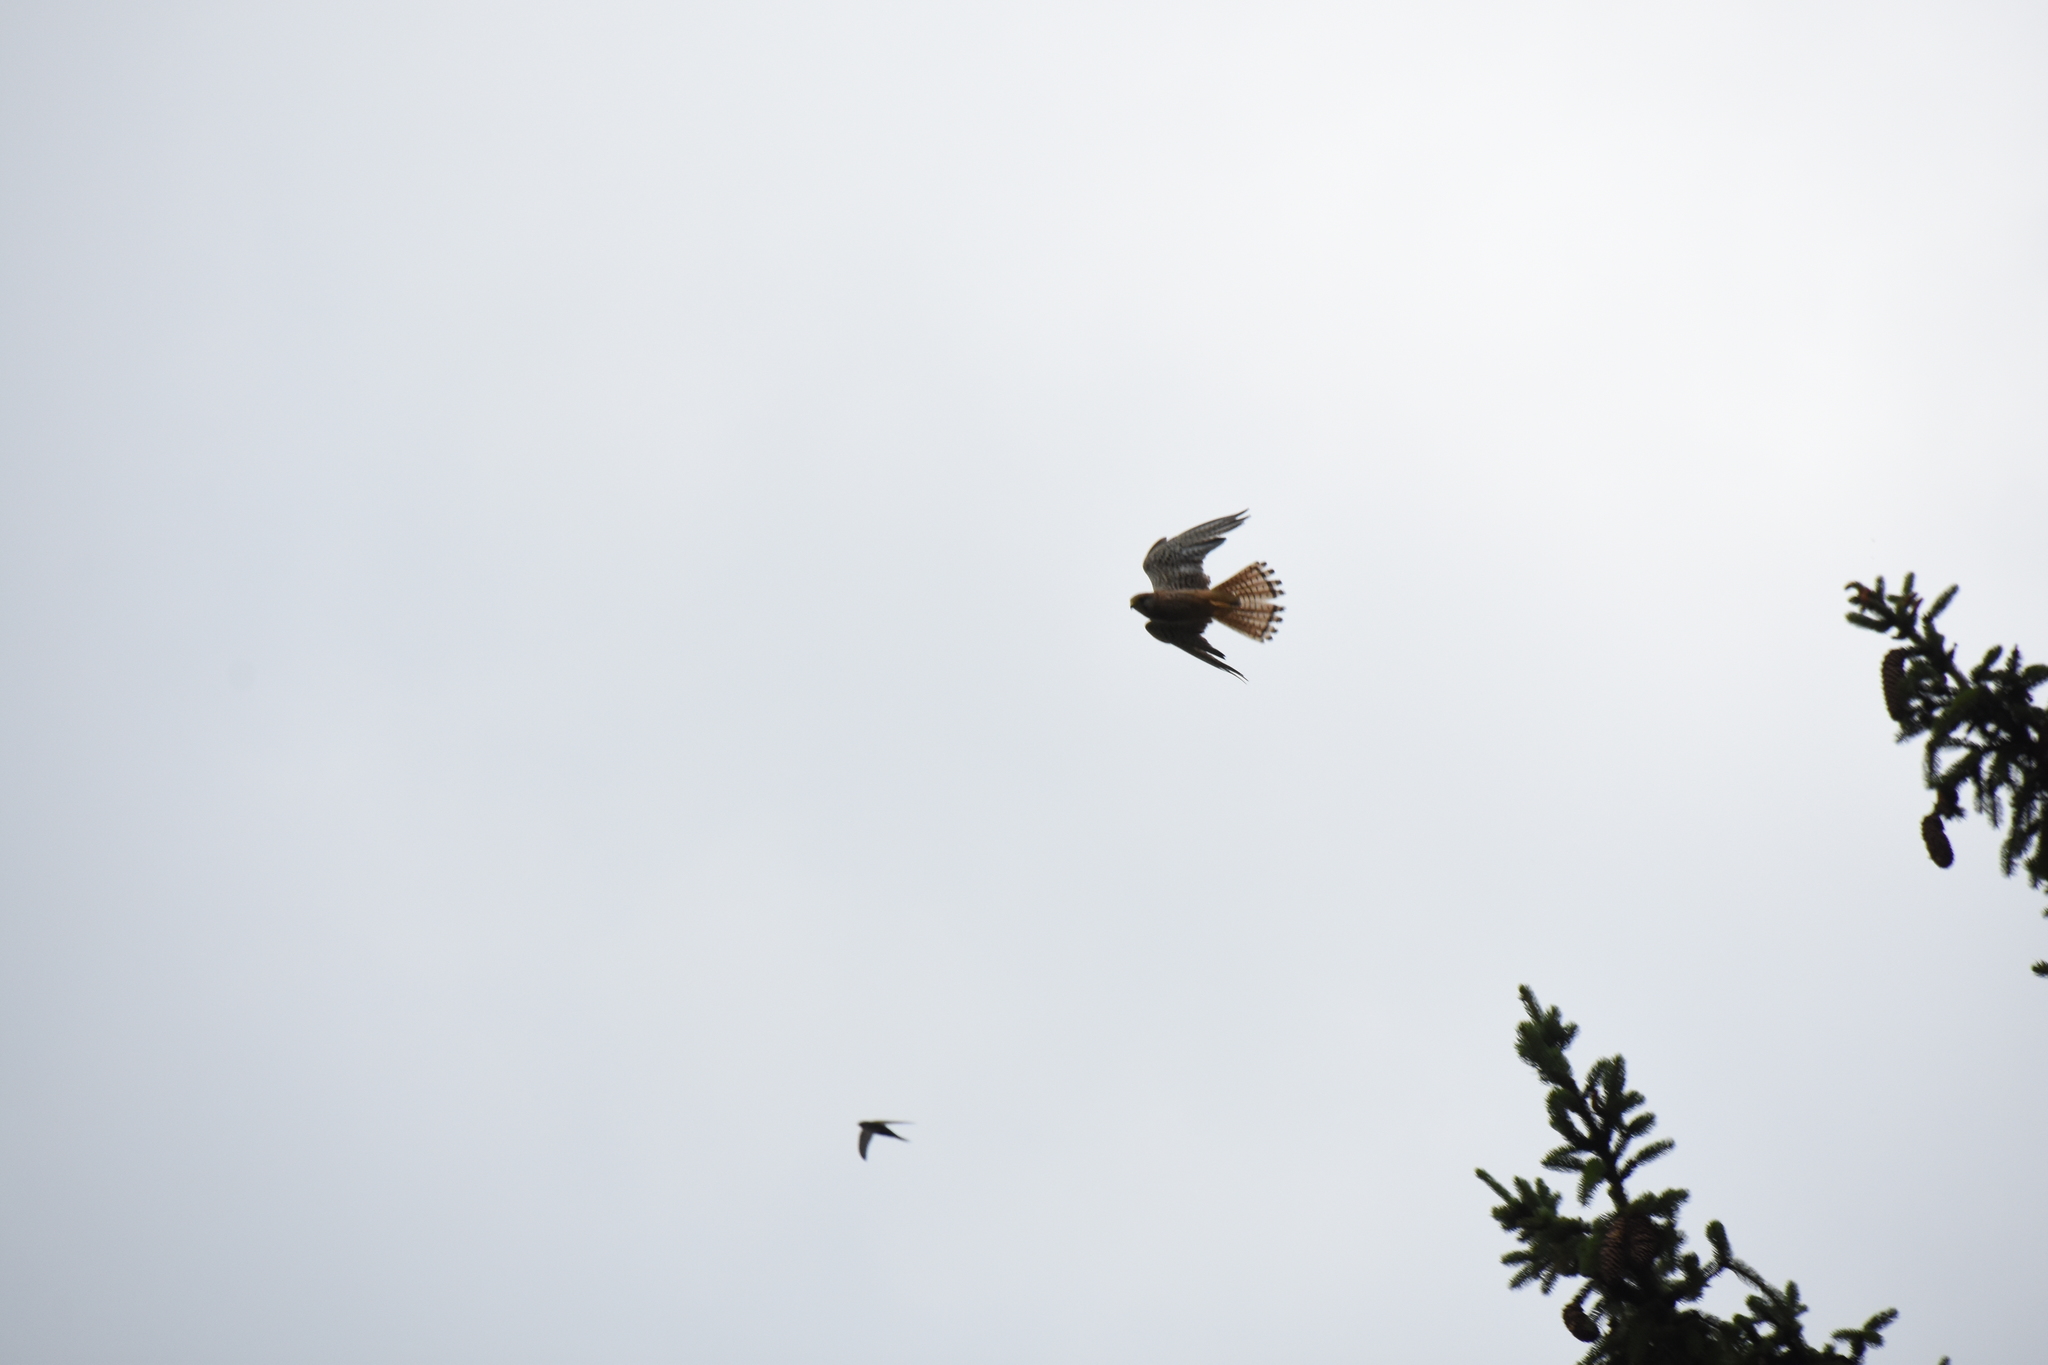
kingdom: Animalia
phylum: Chordata
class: Aves
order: Falconiformes
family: Falconidae
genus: Falco
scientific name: Falco tinnunculus
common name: Common kestrel
